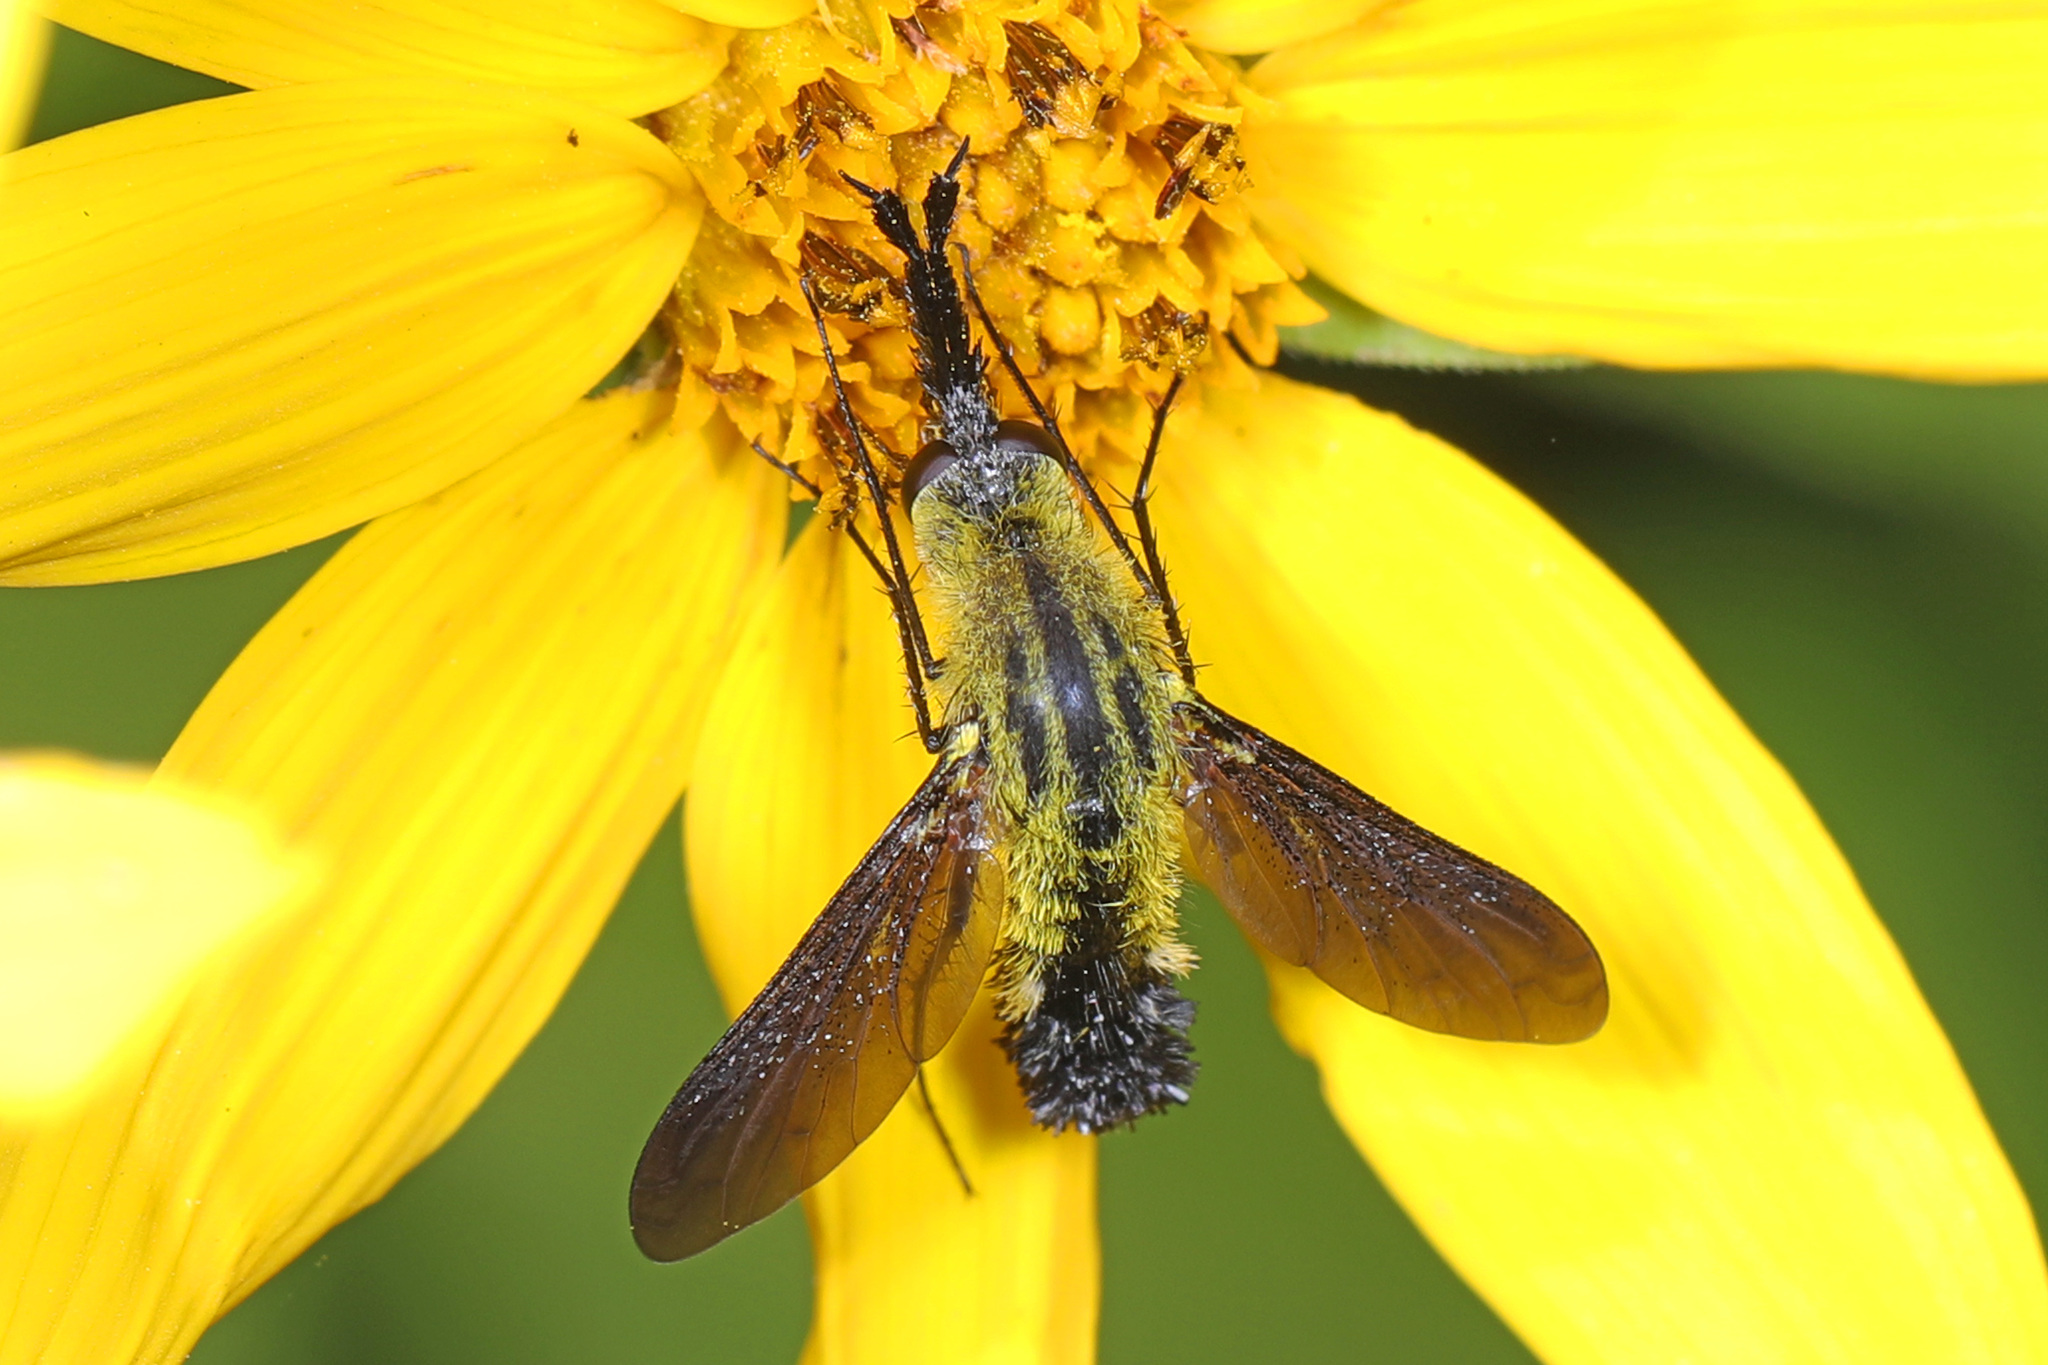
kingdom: Animalia
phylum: Arthropoda
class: Insecta
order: Diptera
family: Bombyliidae
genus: Lepidophora
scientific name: Lepidophora lutea
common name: Hunchback bee fly
